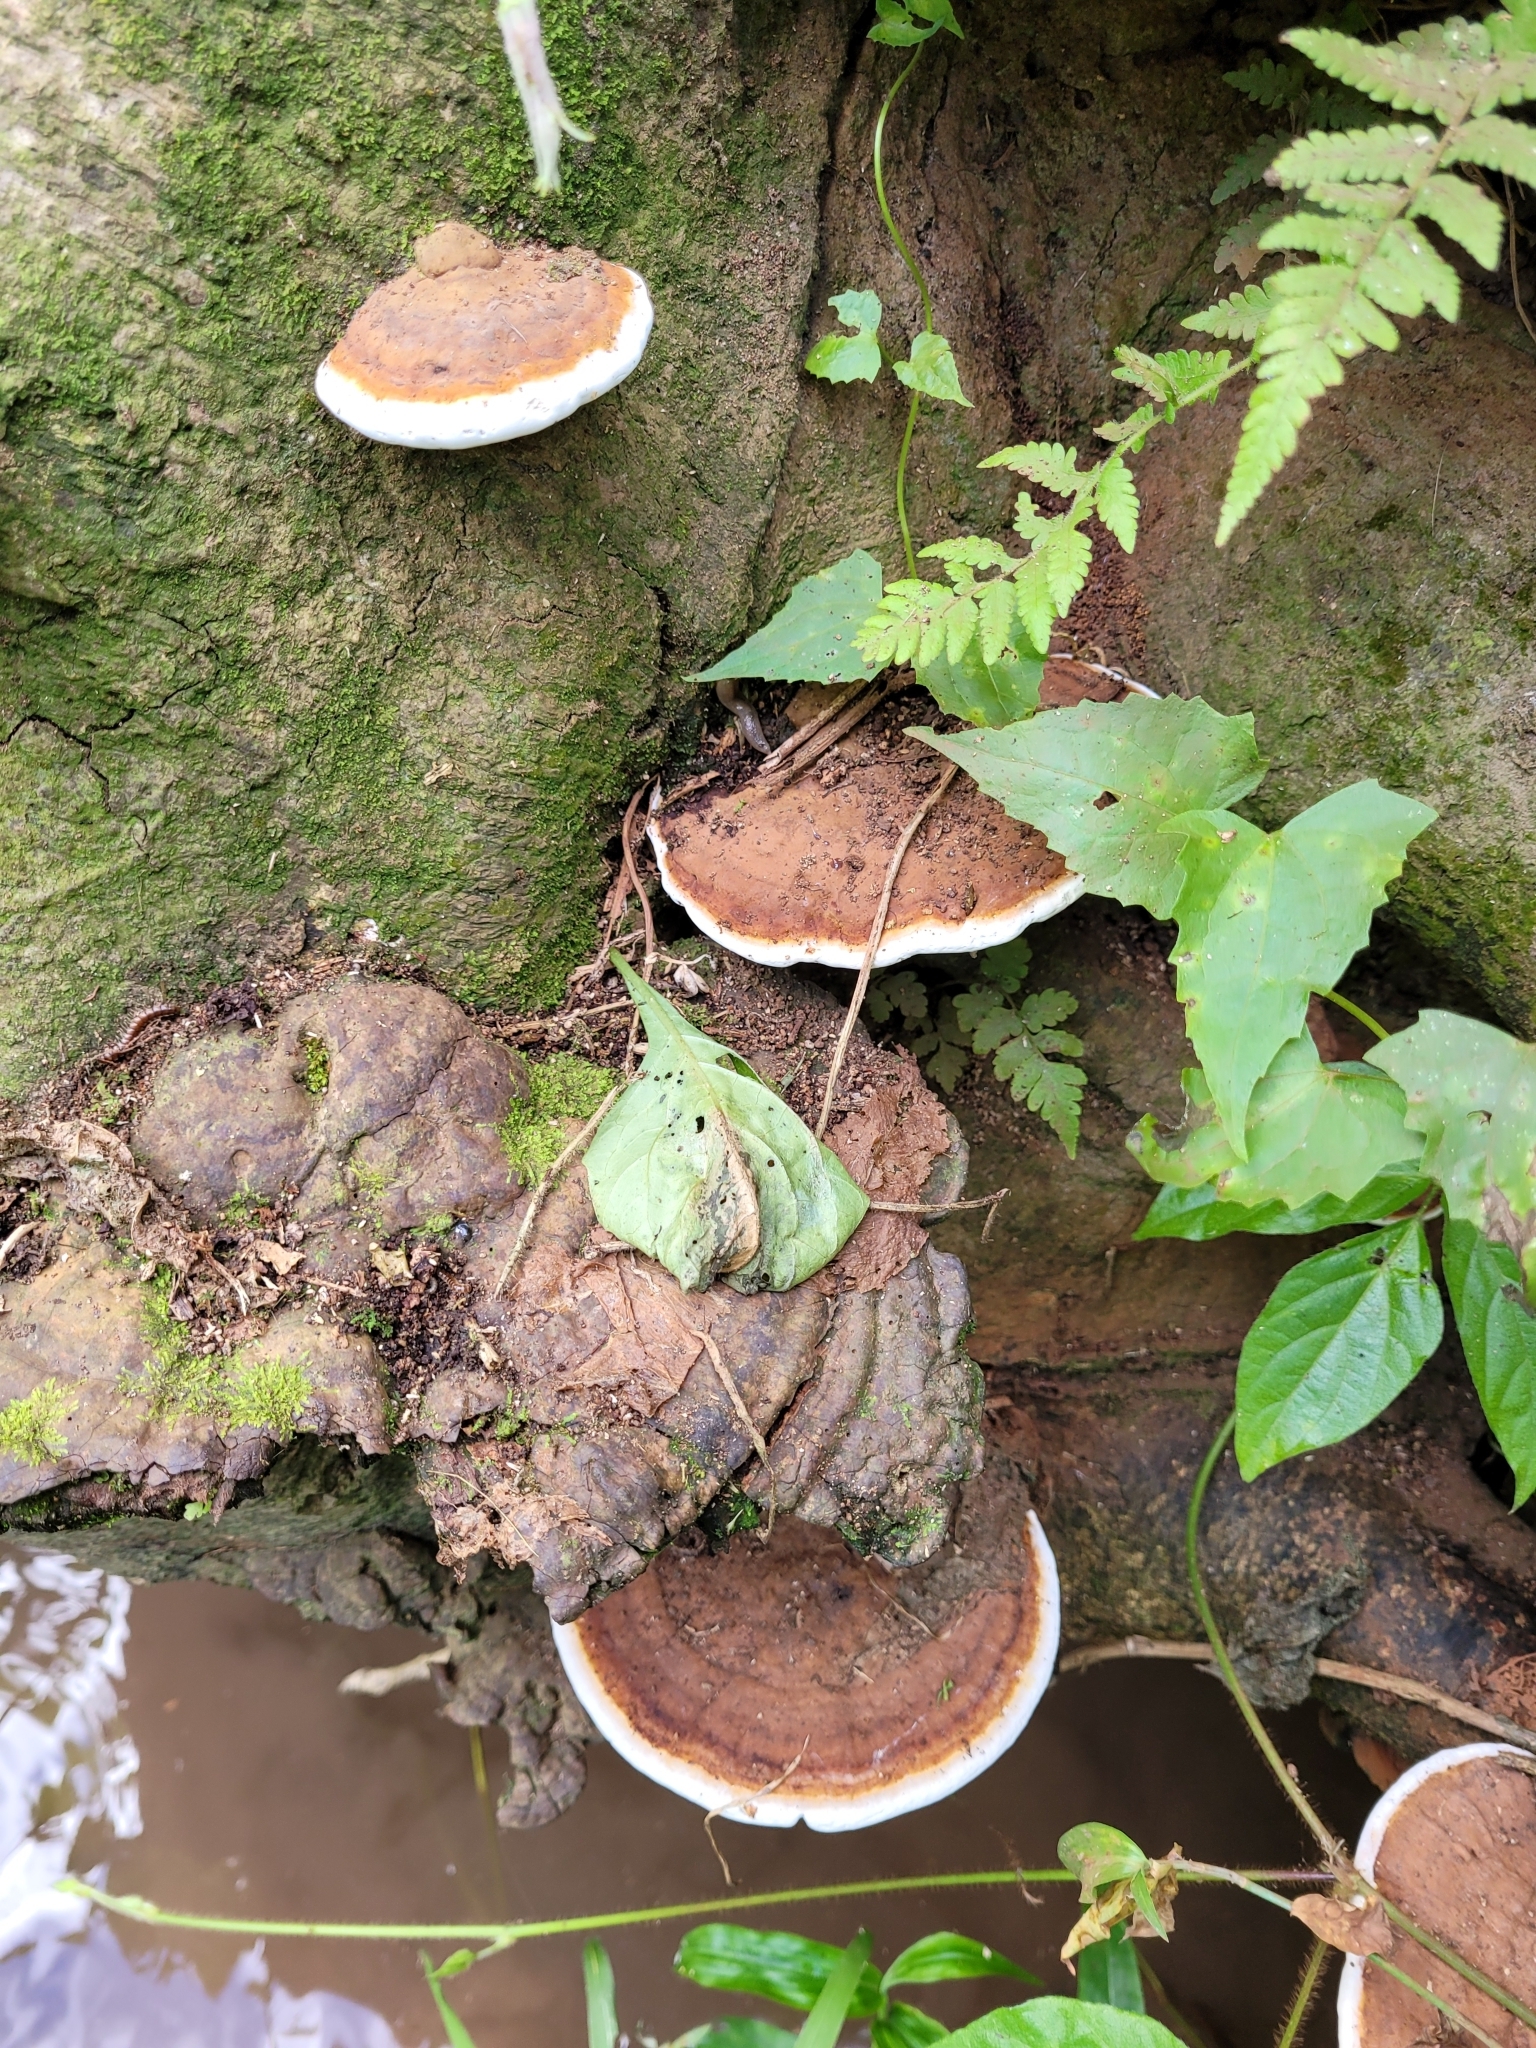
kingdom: Fungi
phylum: Basidiomycota
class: Agaricomycetes
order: Polyporales
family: Polyporaceae
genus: Ganoderma
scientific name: Ganoderma lobatum
